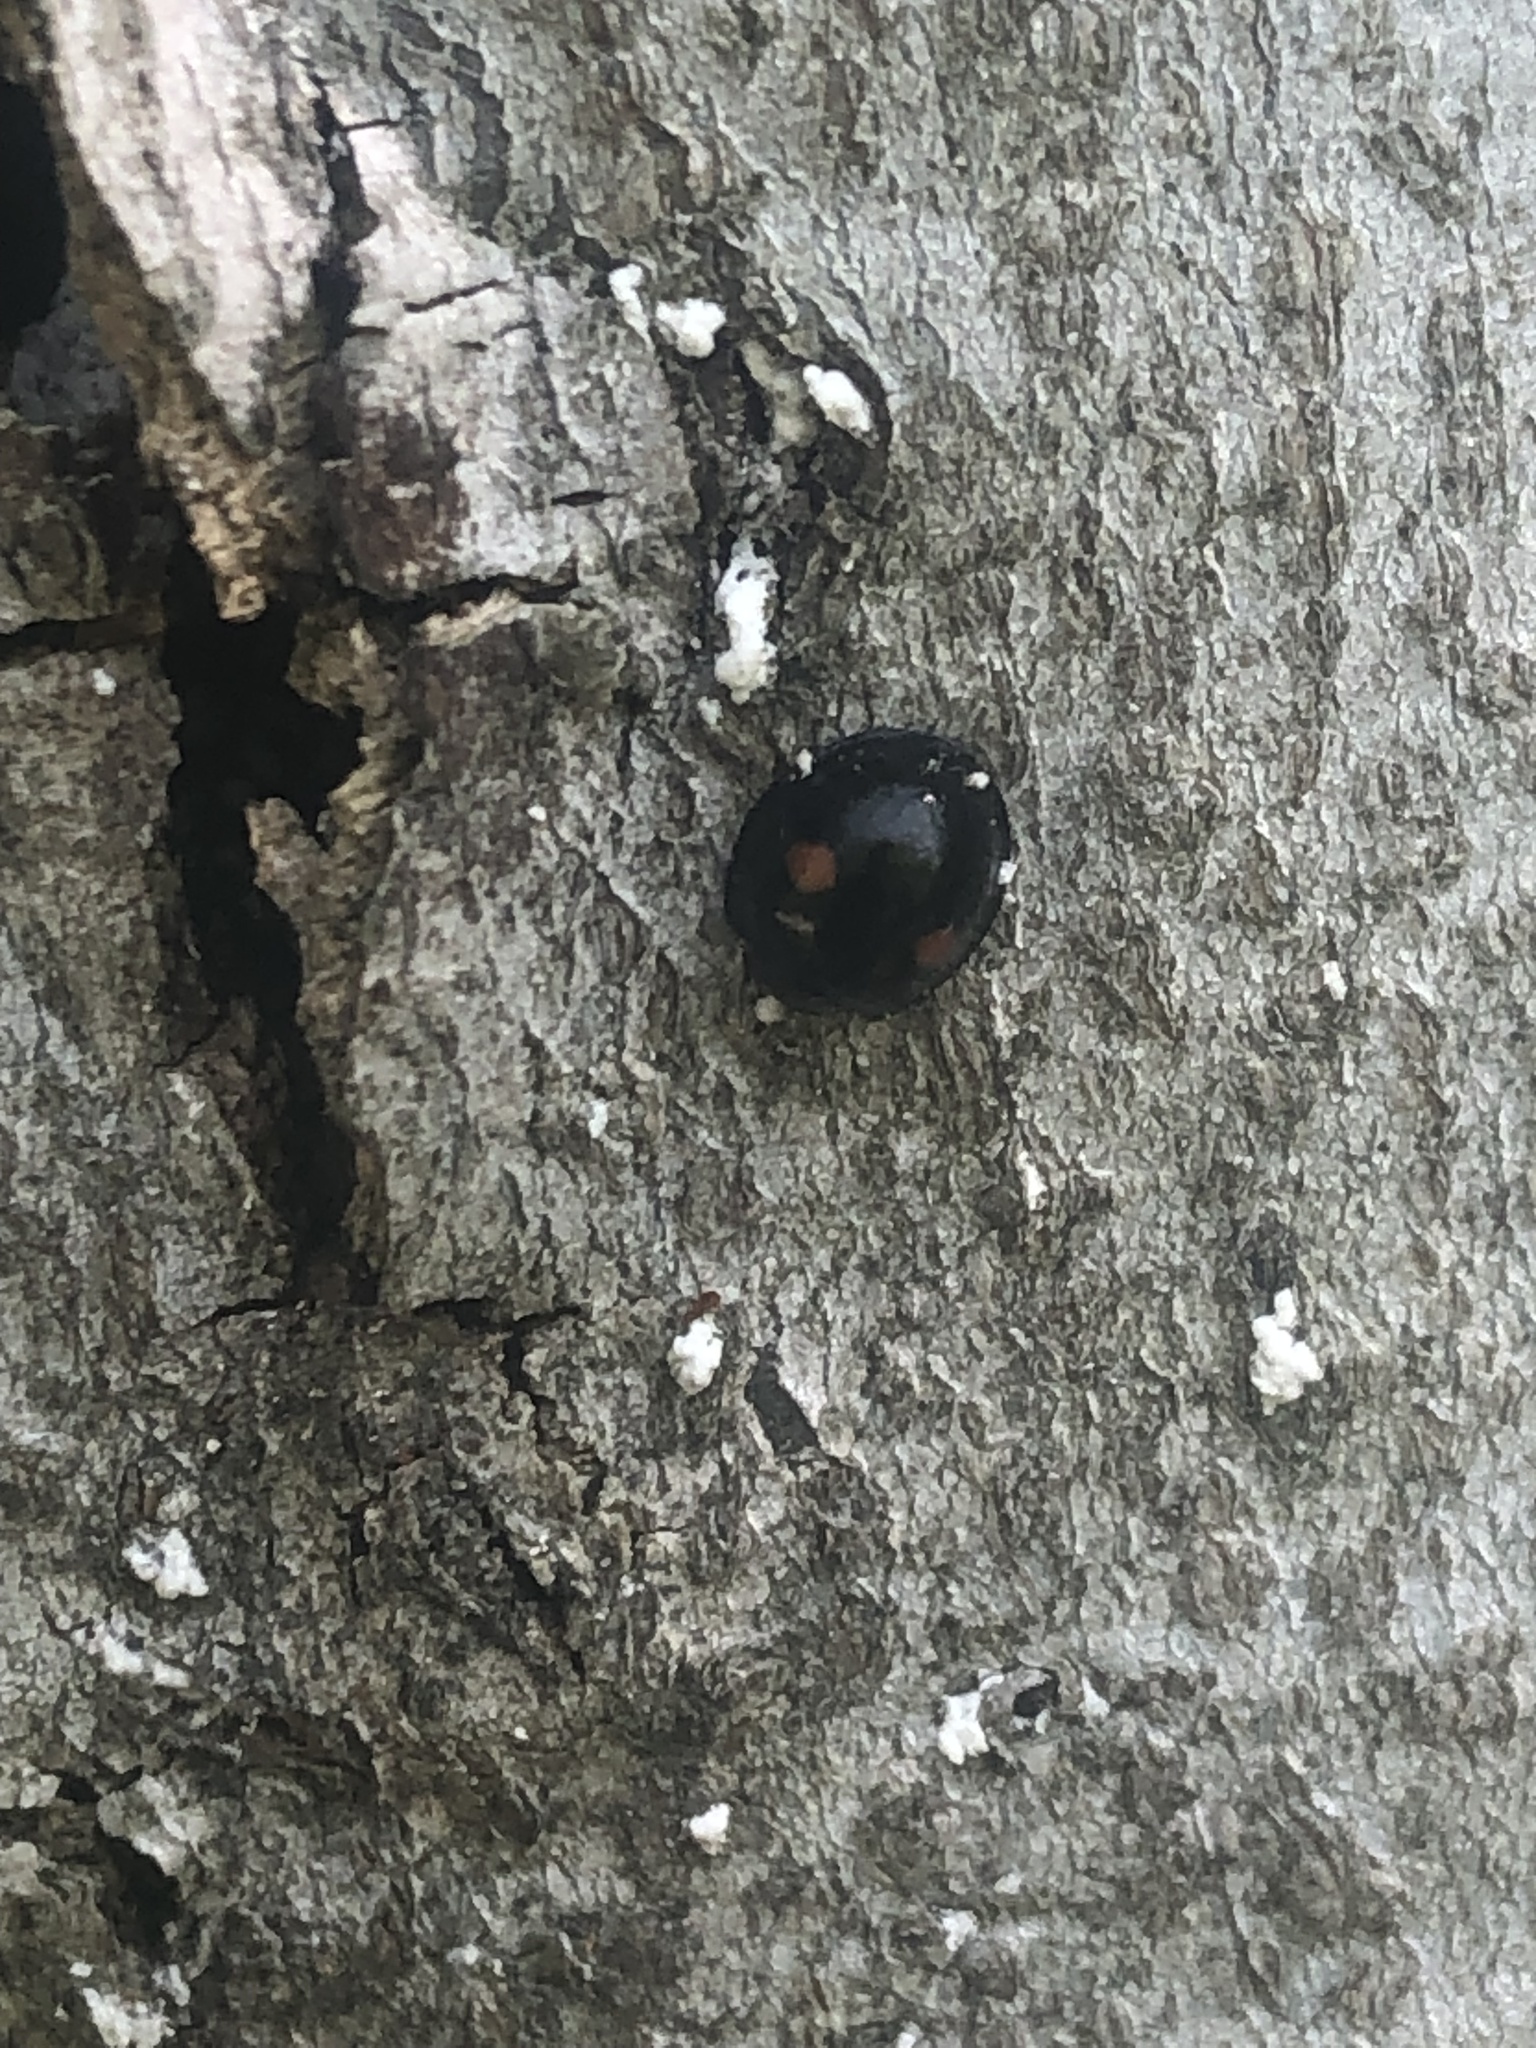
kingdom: Animalia
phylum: Arthropoda
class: Insecta
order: Coleoptera
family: Coccinellidae
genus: Chilocorus
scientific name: Chilocorus stigma
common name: Twicestabbed lady beetle
